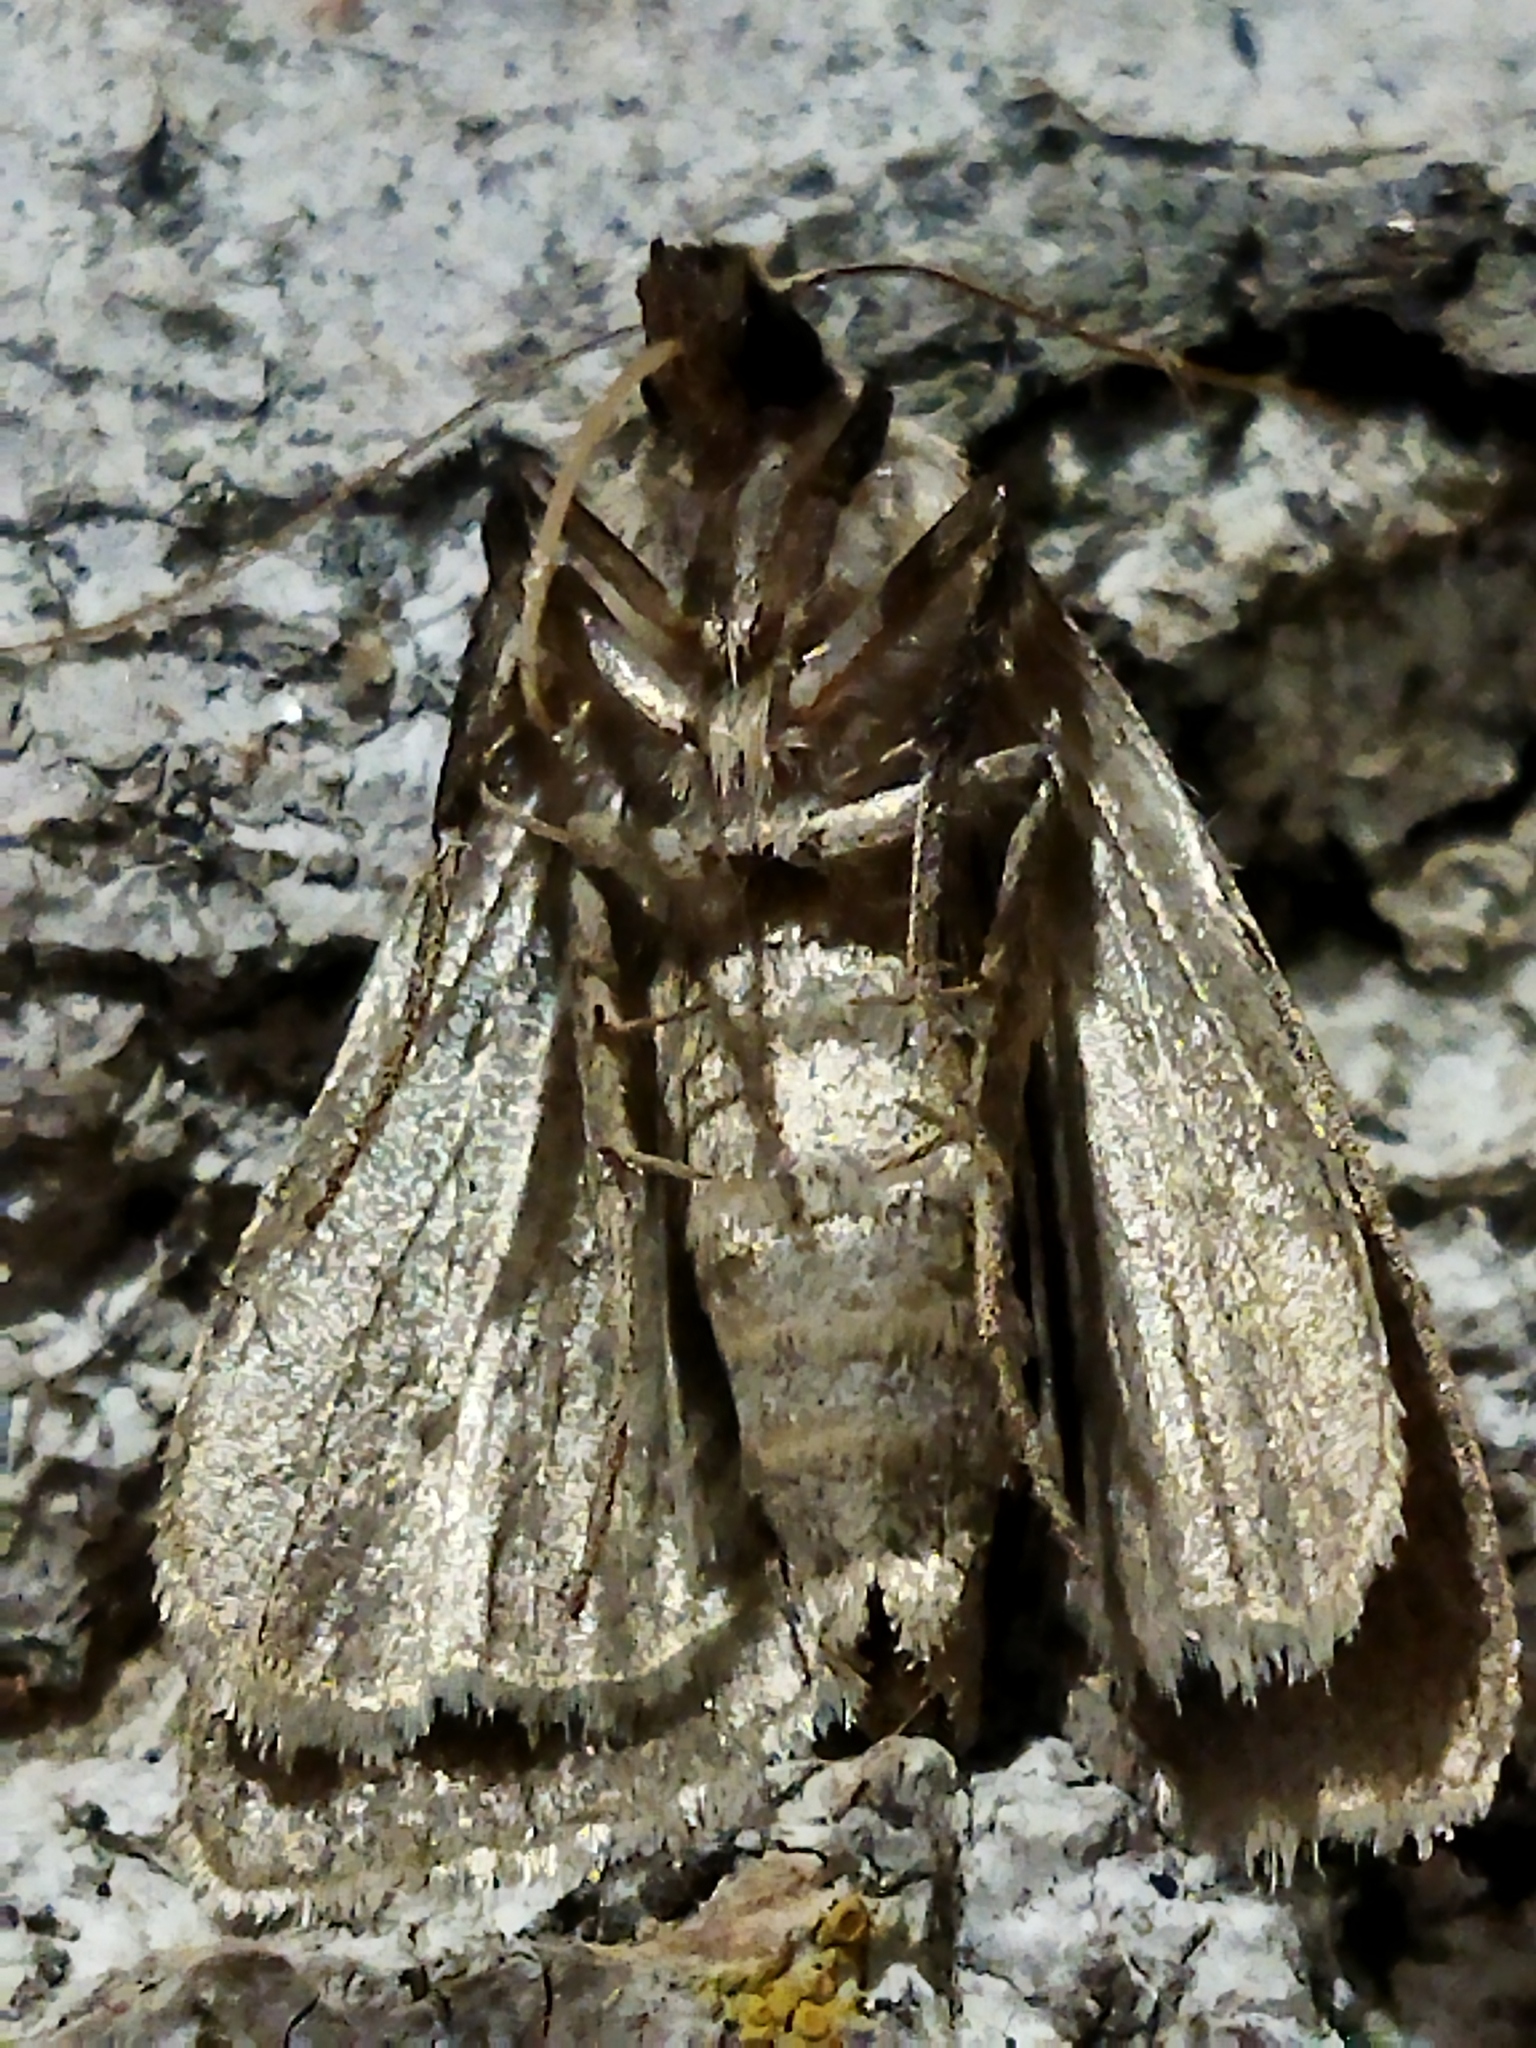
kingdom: Animalia
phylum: Arthropoda
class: Insecta
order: Lepidoptera
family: Noctuidae
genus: Archanara
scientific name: Archanara neurica
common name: White-mantled wainscot
